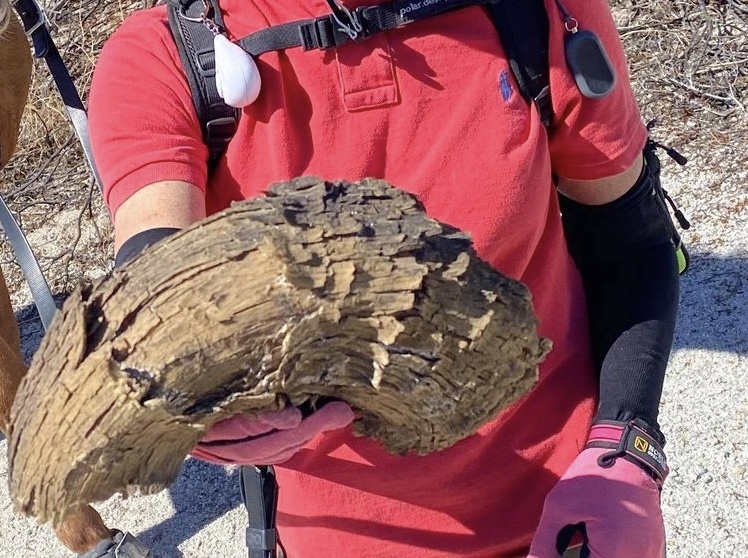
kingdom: Animalia
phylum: Chordata
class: Mammalia
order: Artiodactyla
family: Bovidae
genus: Ovis
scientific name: Ovis canadensis
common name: Bighorn sheep
